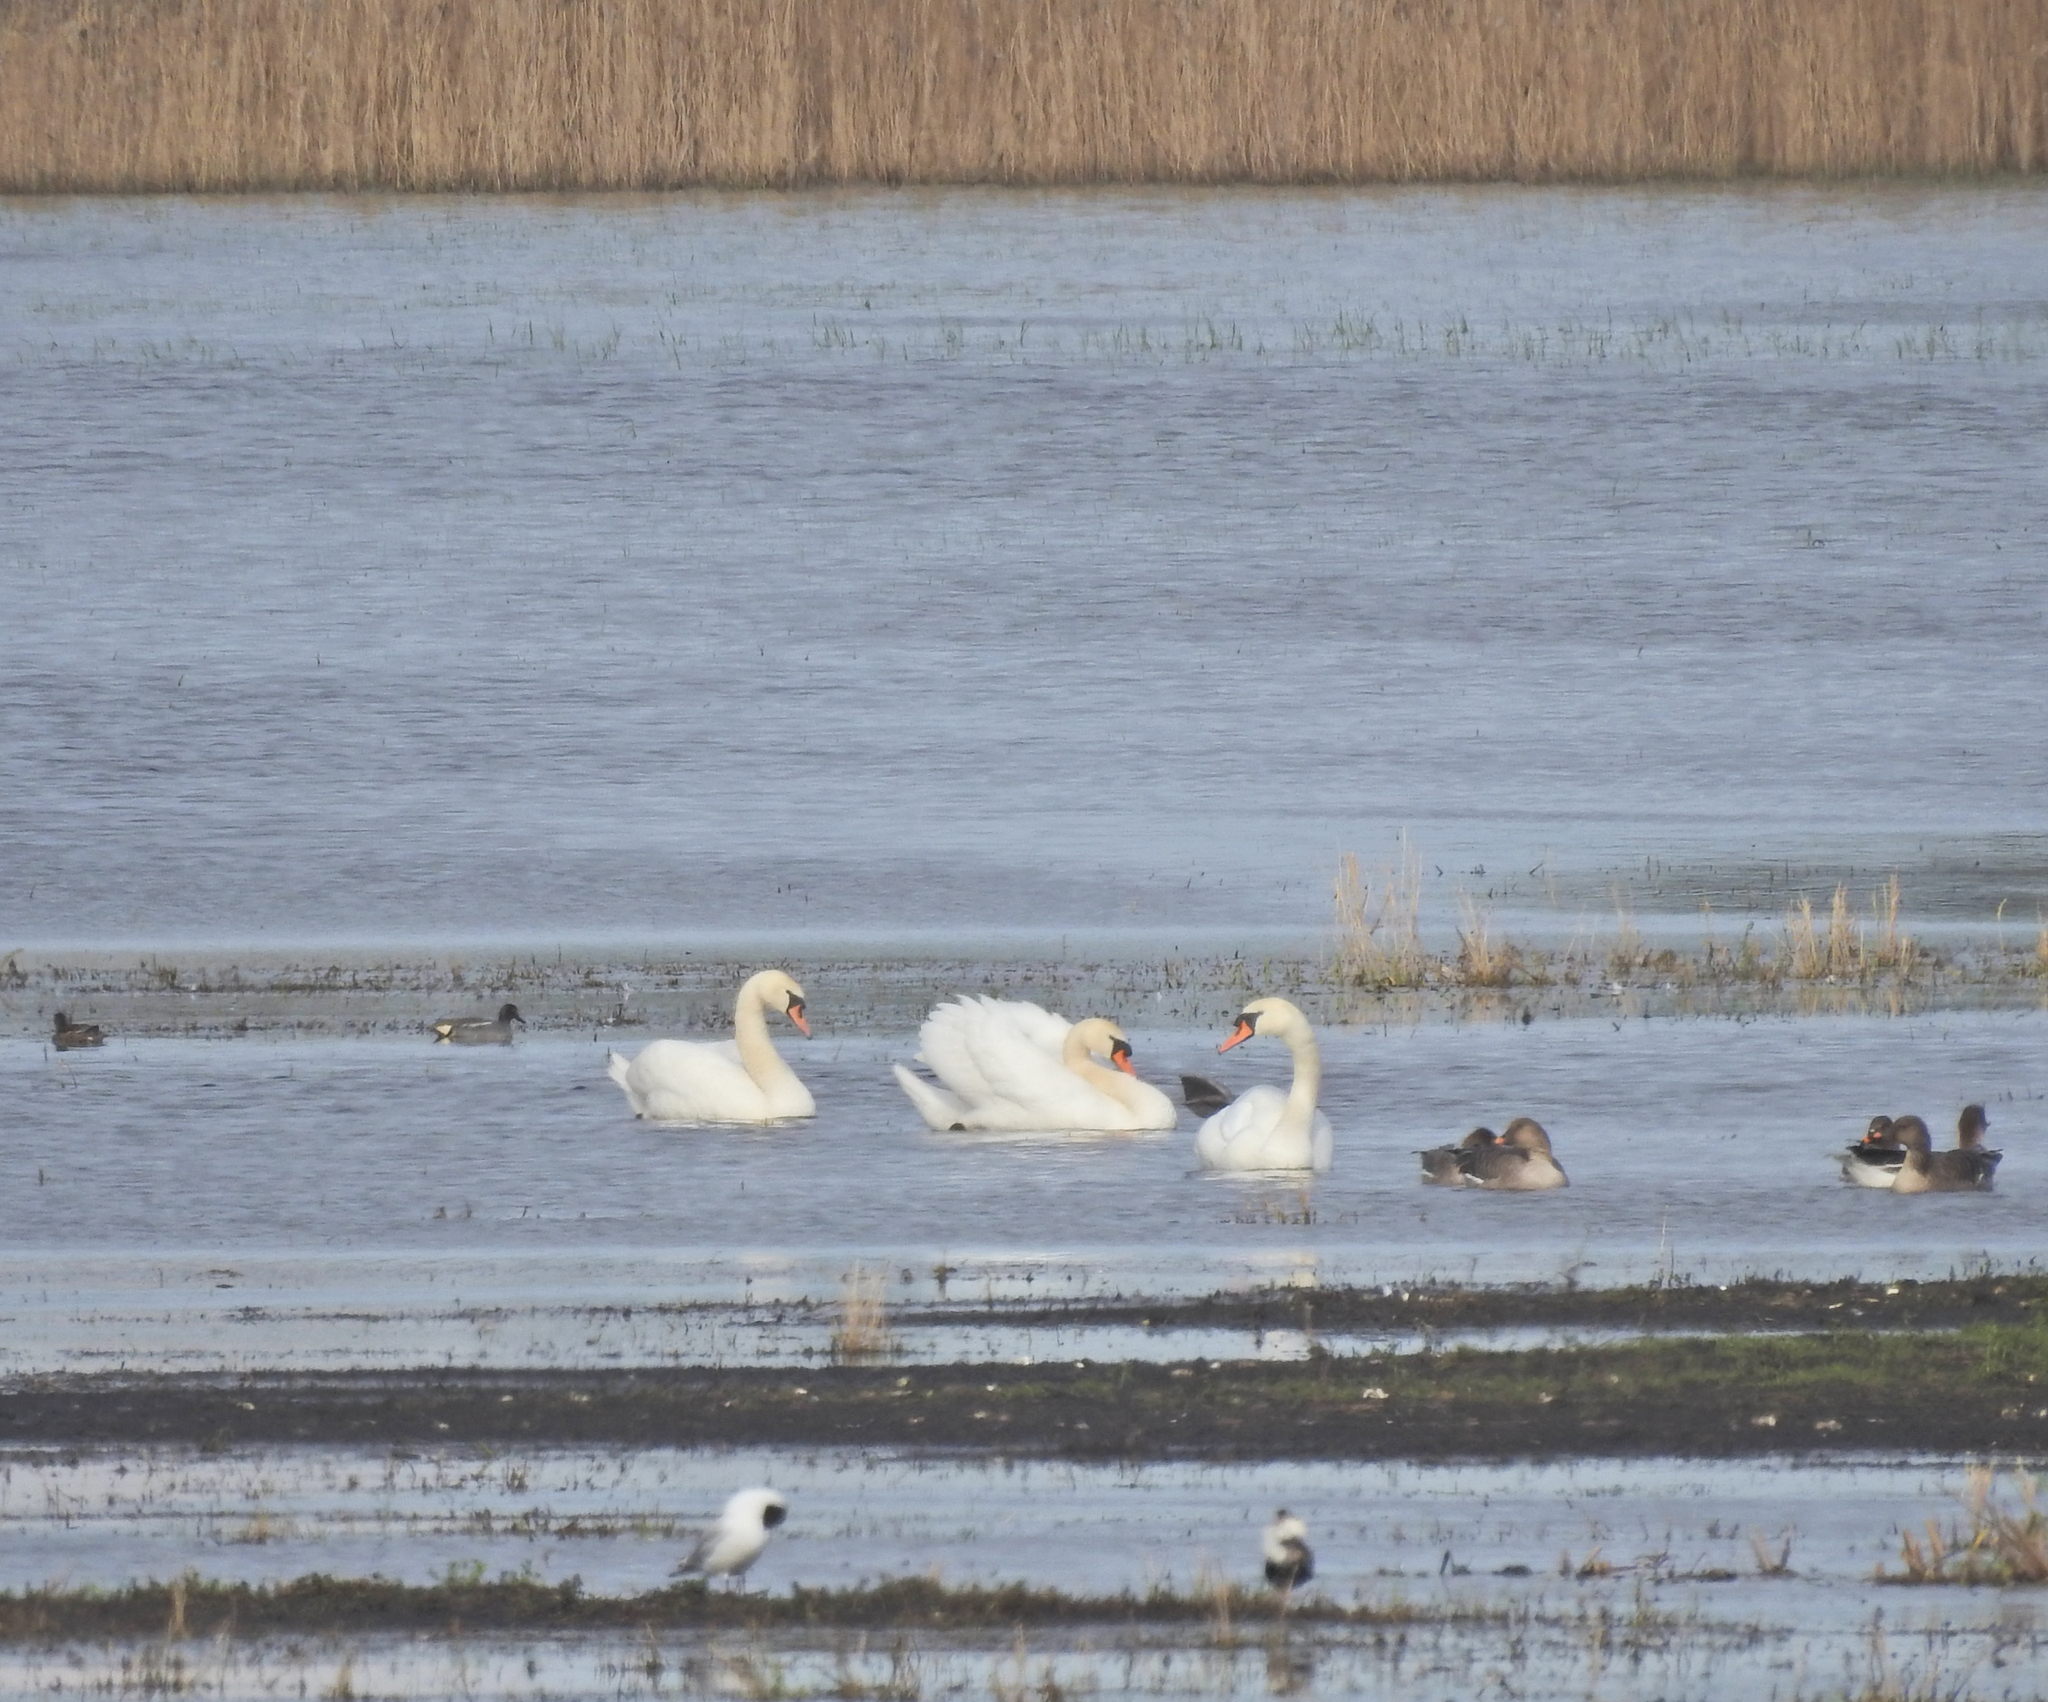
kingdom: Animalia
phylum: Chordata
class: Aves
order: Anseriformes
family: Anatidae
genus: Cygnus
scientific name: Cygnus olor
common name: Mute swan
